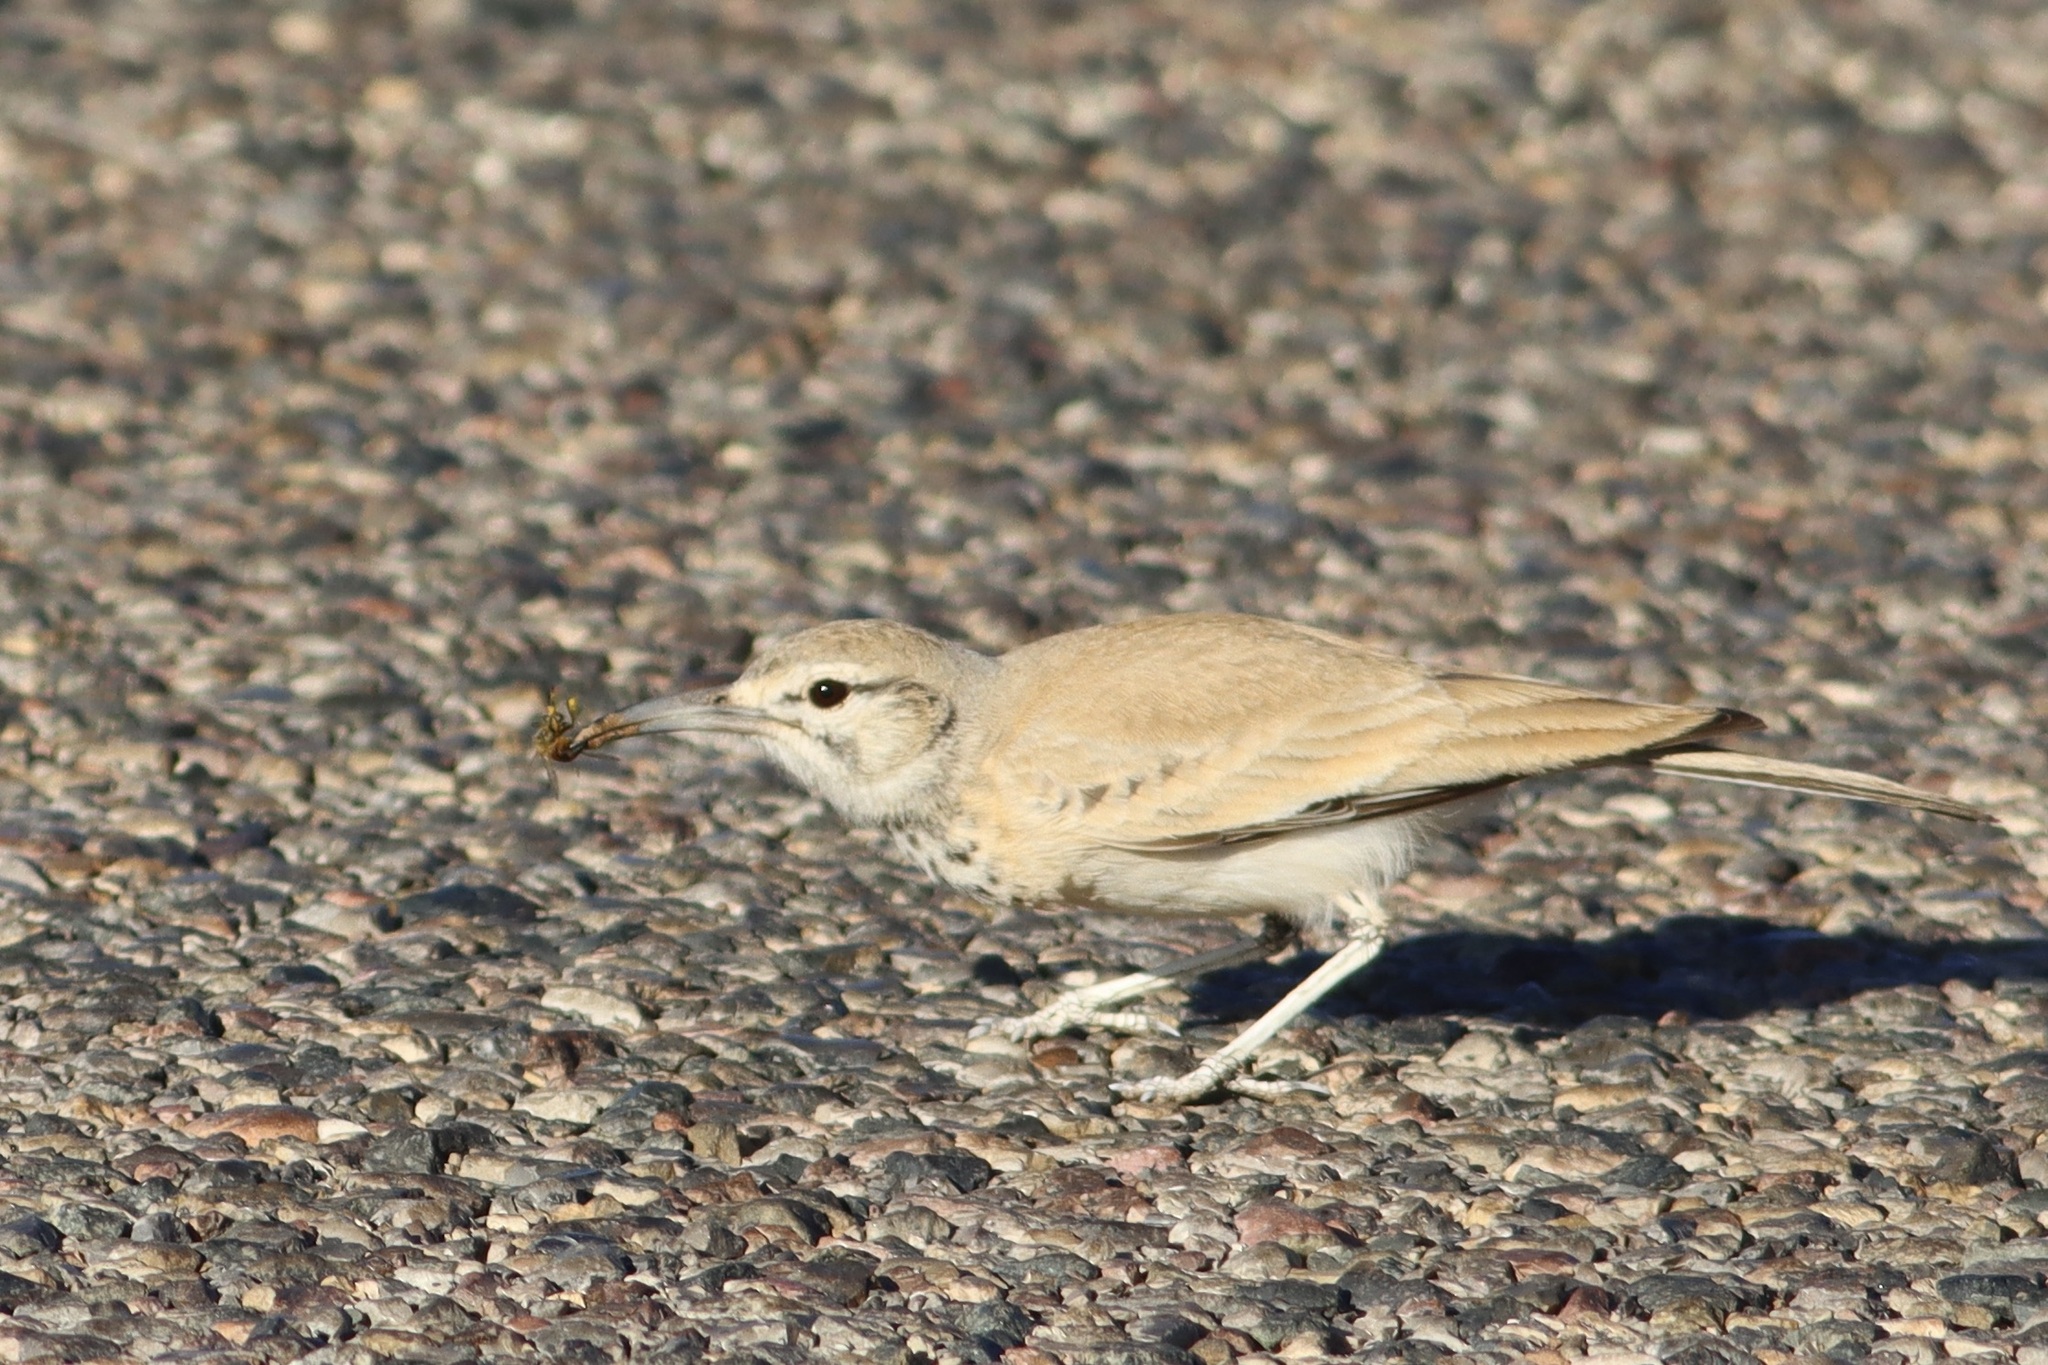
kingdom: Animalia
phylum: Chordata
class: Aves
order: Passeriformes
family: Alaudidae
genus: Alaemon
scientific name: Alaemon alaudipes
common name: Greater hoopoe-lark
